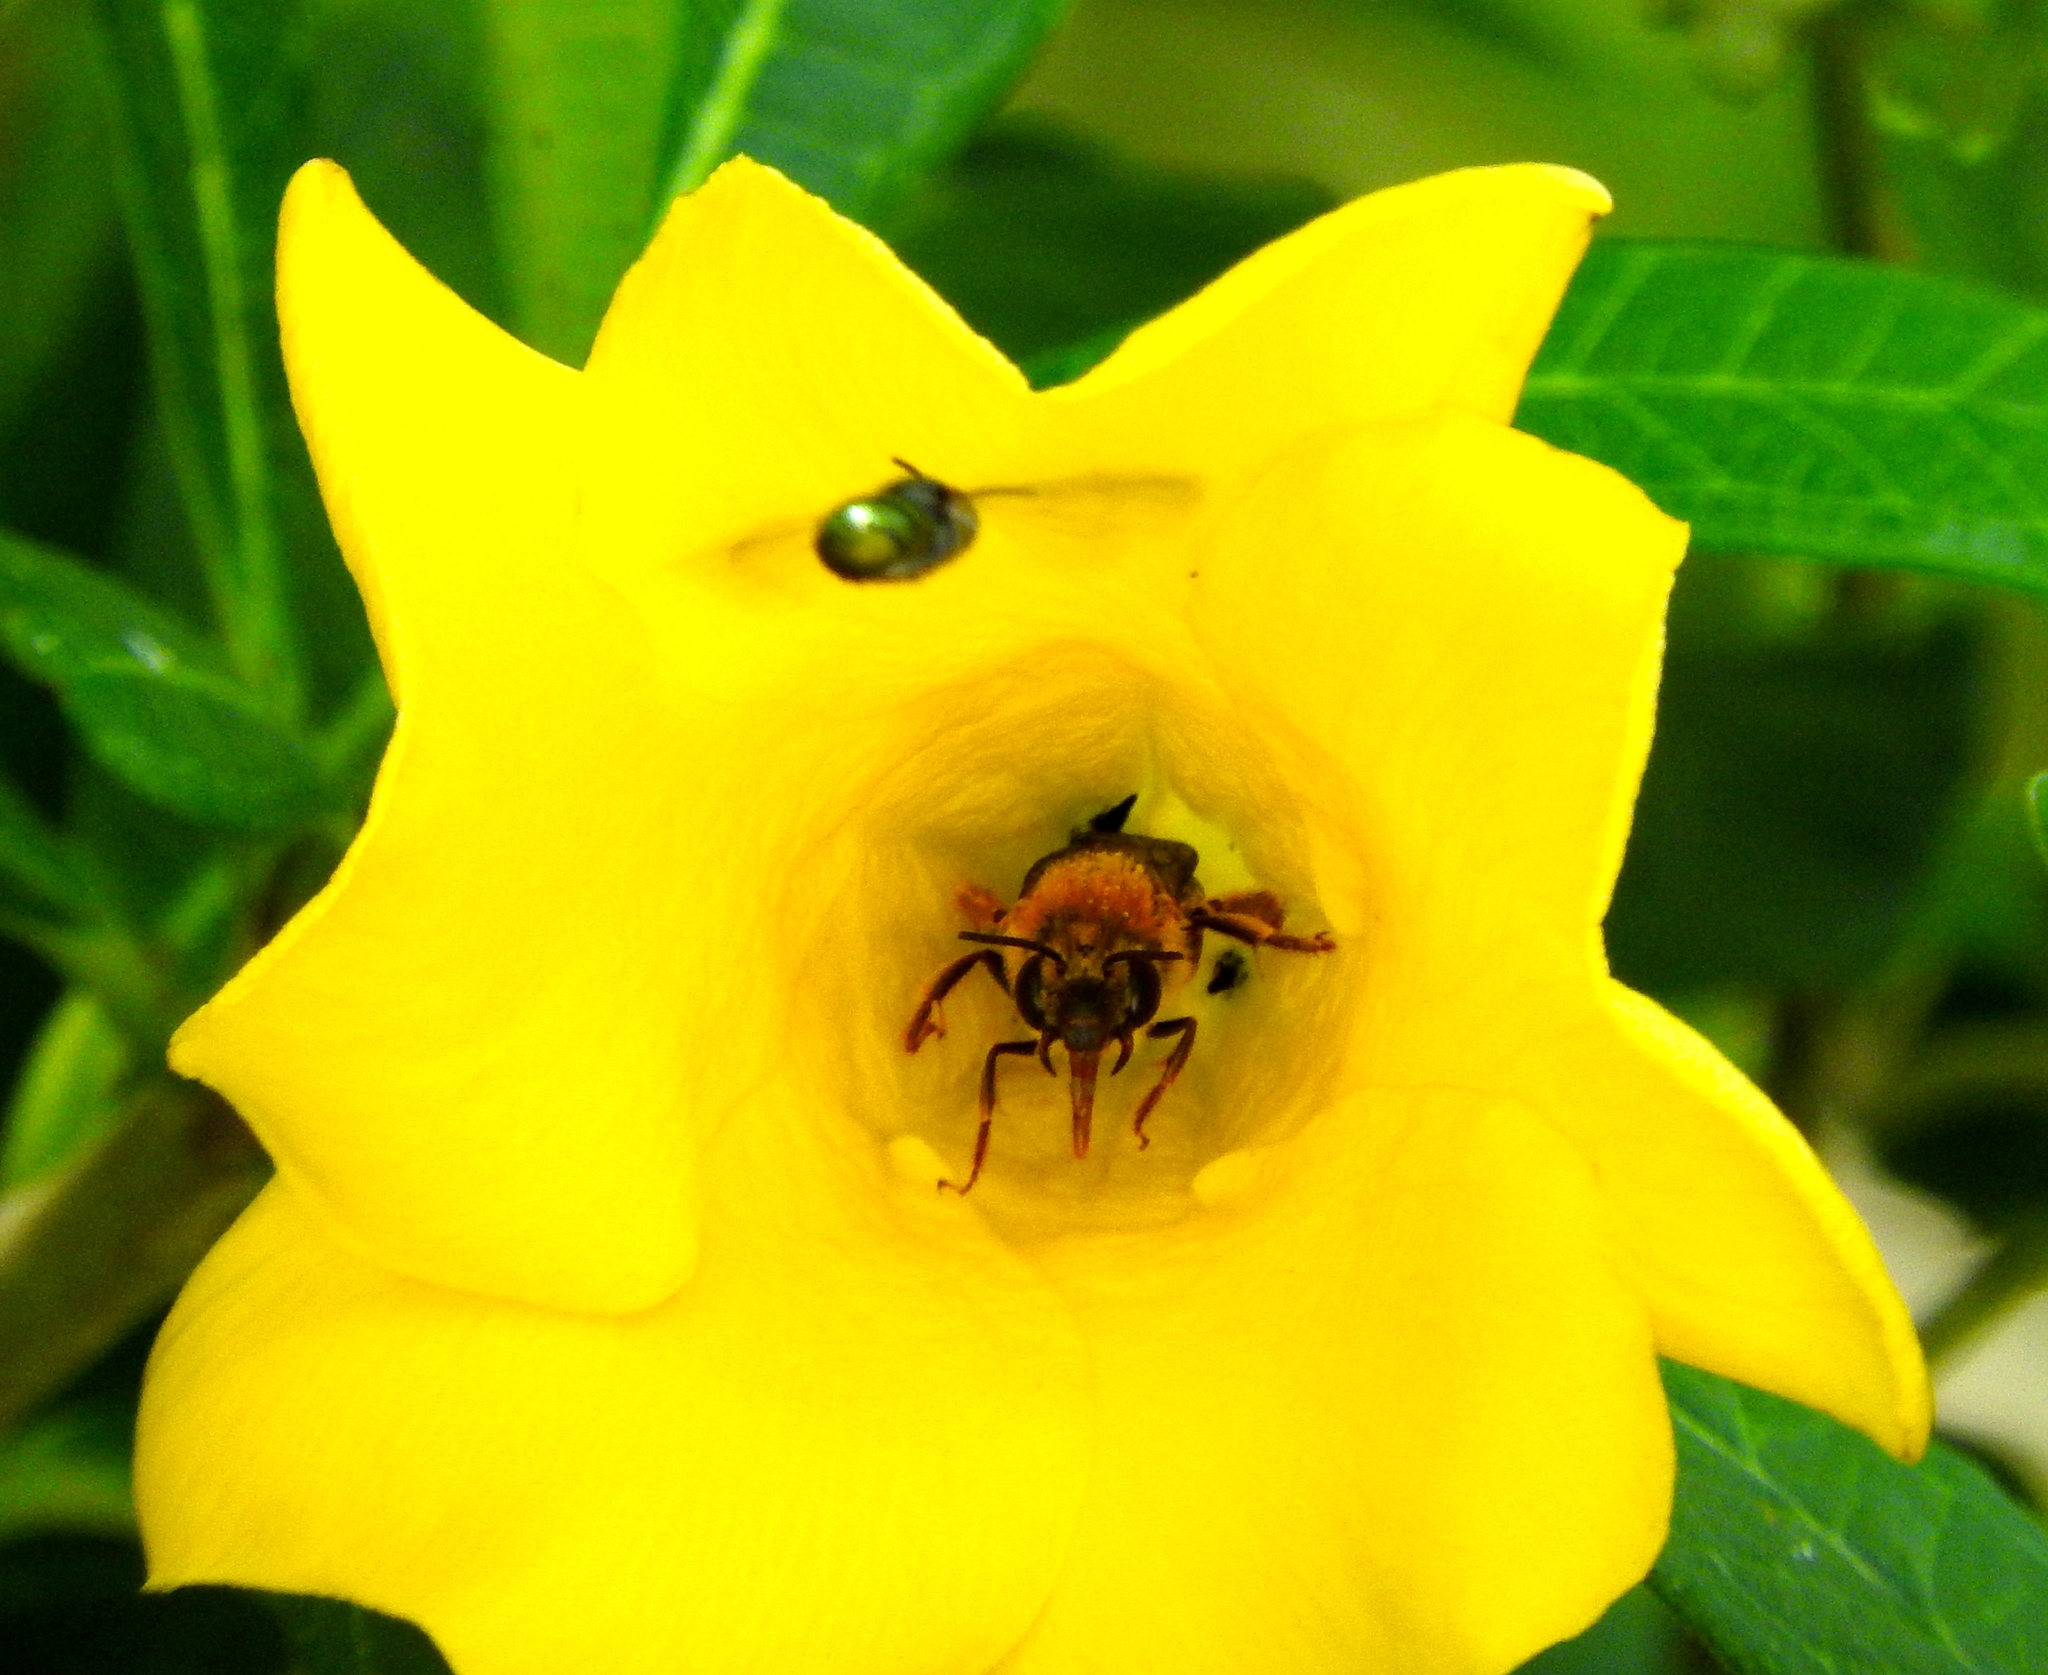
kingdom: Animalia
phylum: Arthropoda
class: Insecta
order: Hymenoptera
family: Apidae
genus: Peponapis
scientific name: Peponapis
